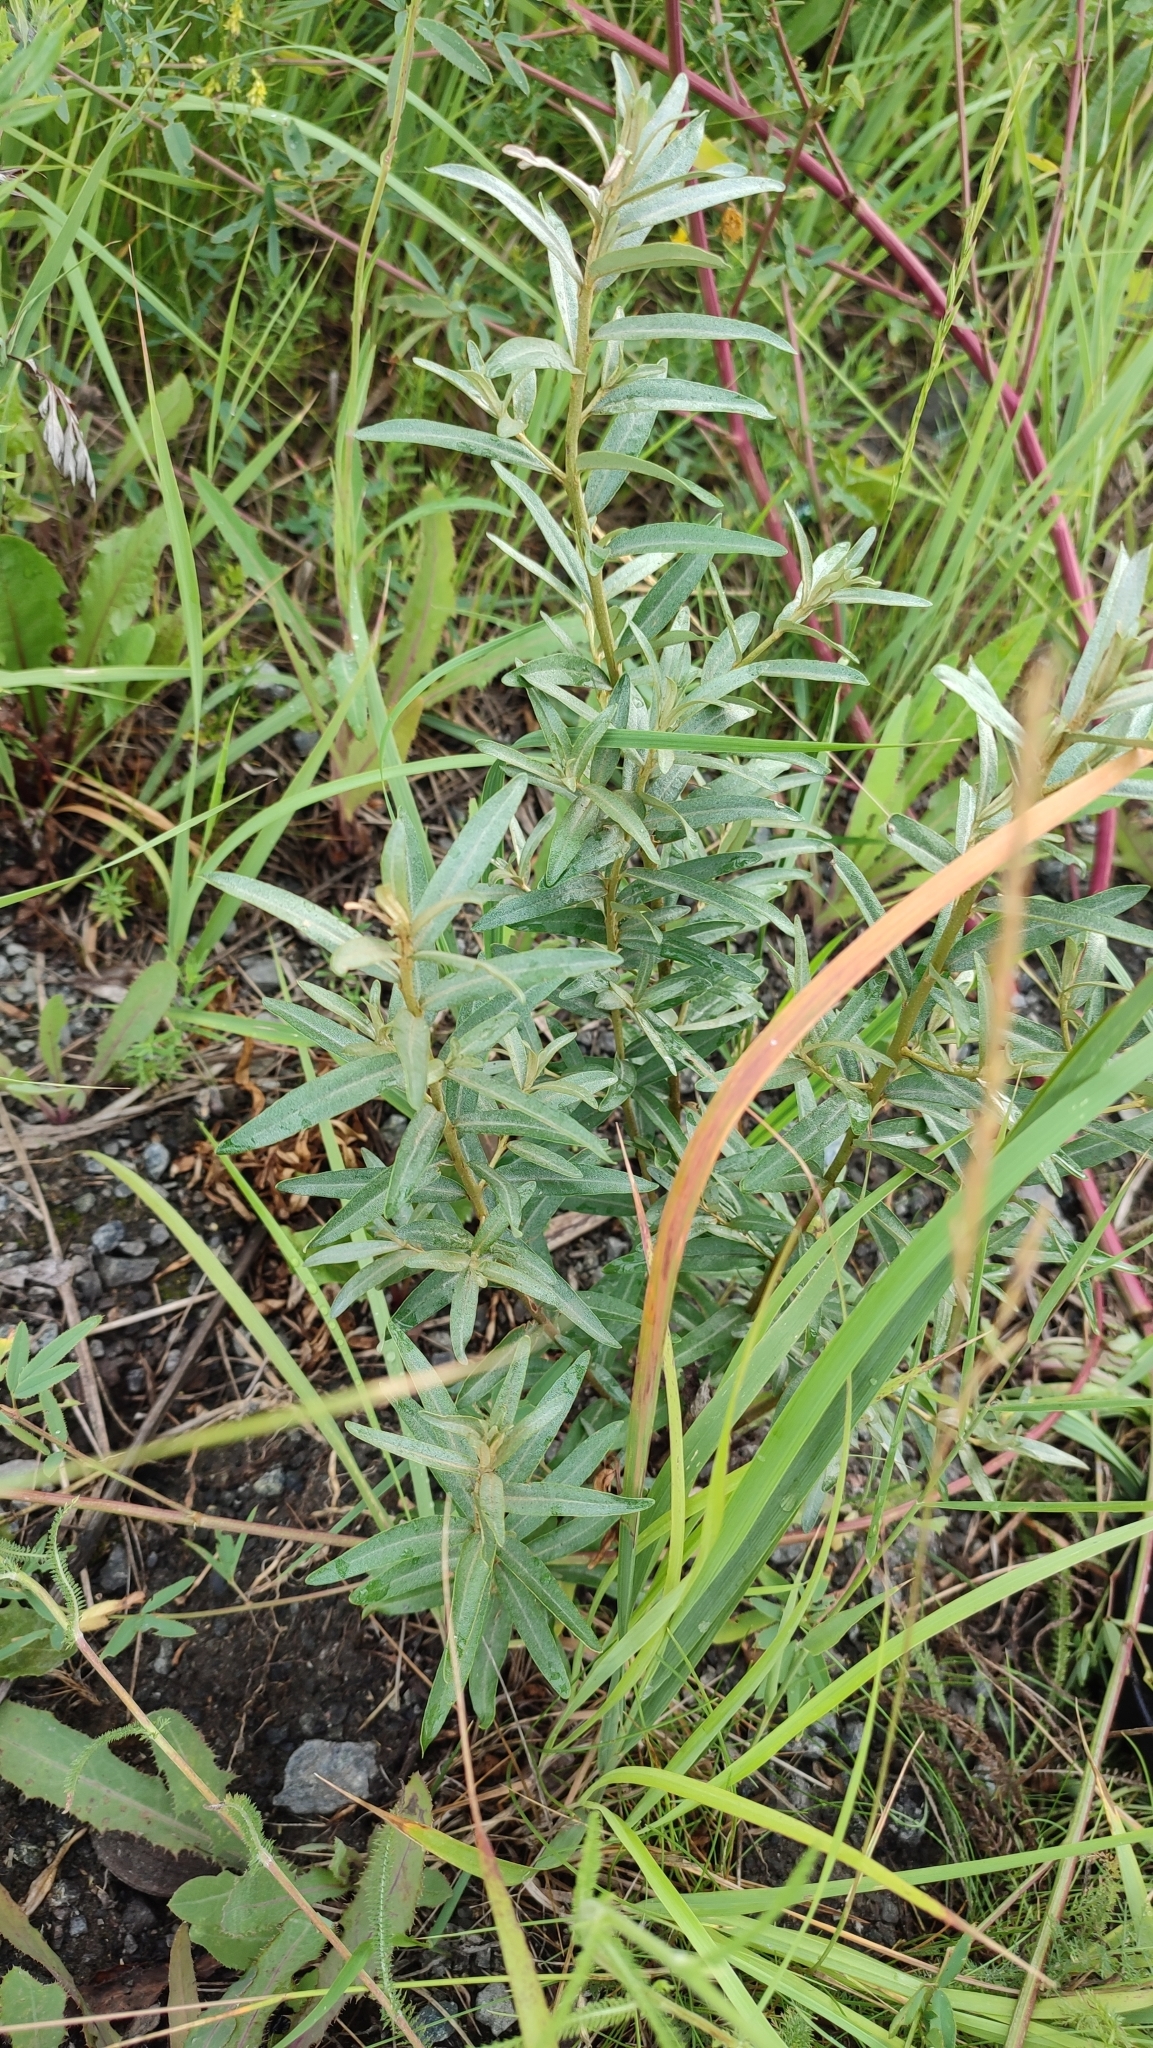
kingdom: Plantae
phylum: Tracheophyta
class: Magnoliopsida
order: Rosales
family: Elaeagnaceae
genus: Hippophae
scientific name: Hippophae rhamnoides
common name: Sea-buckthorn
